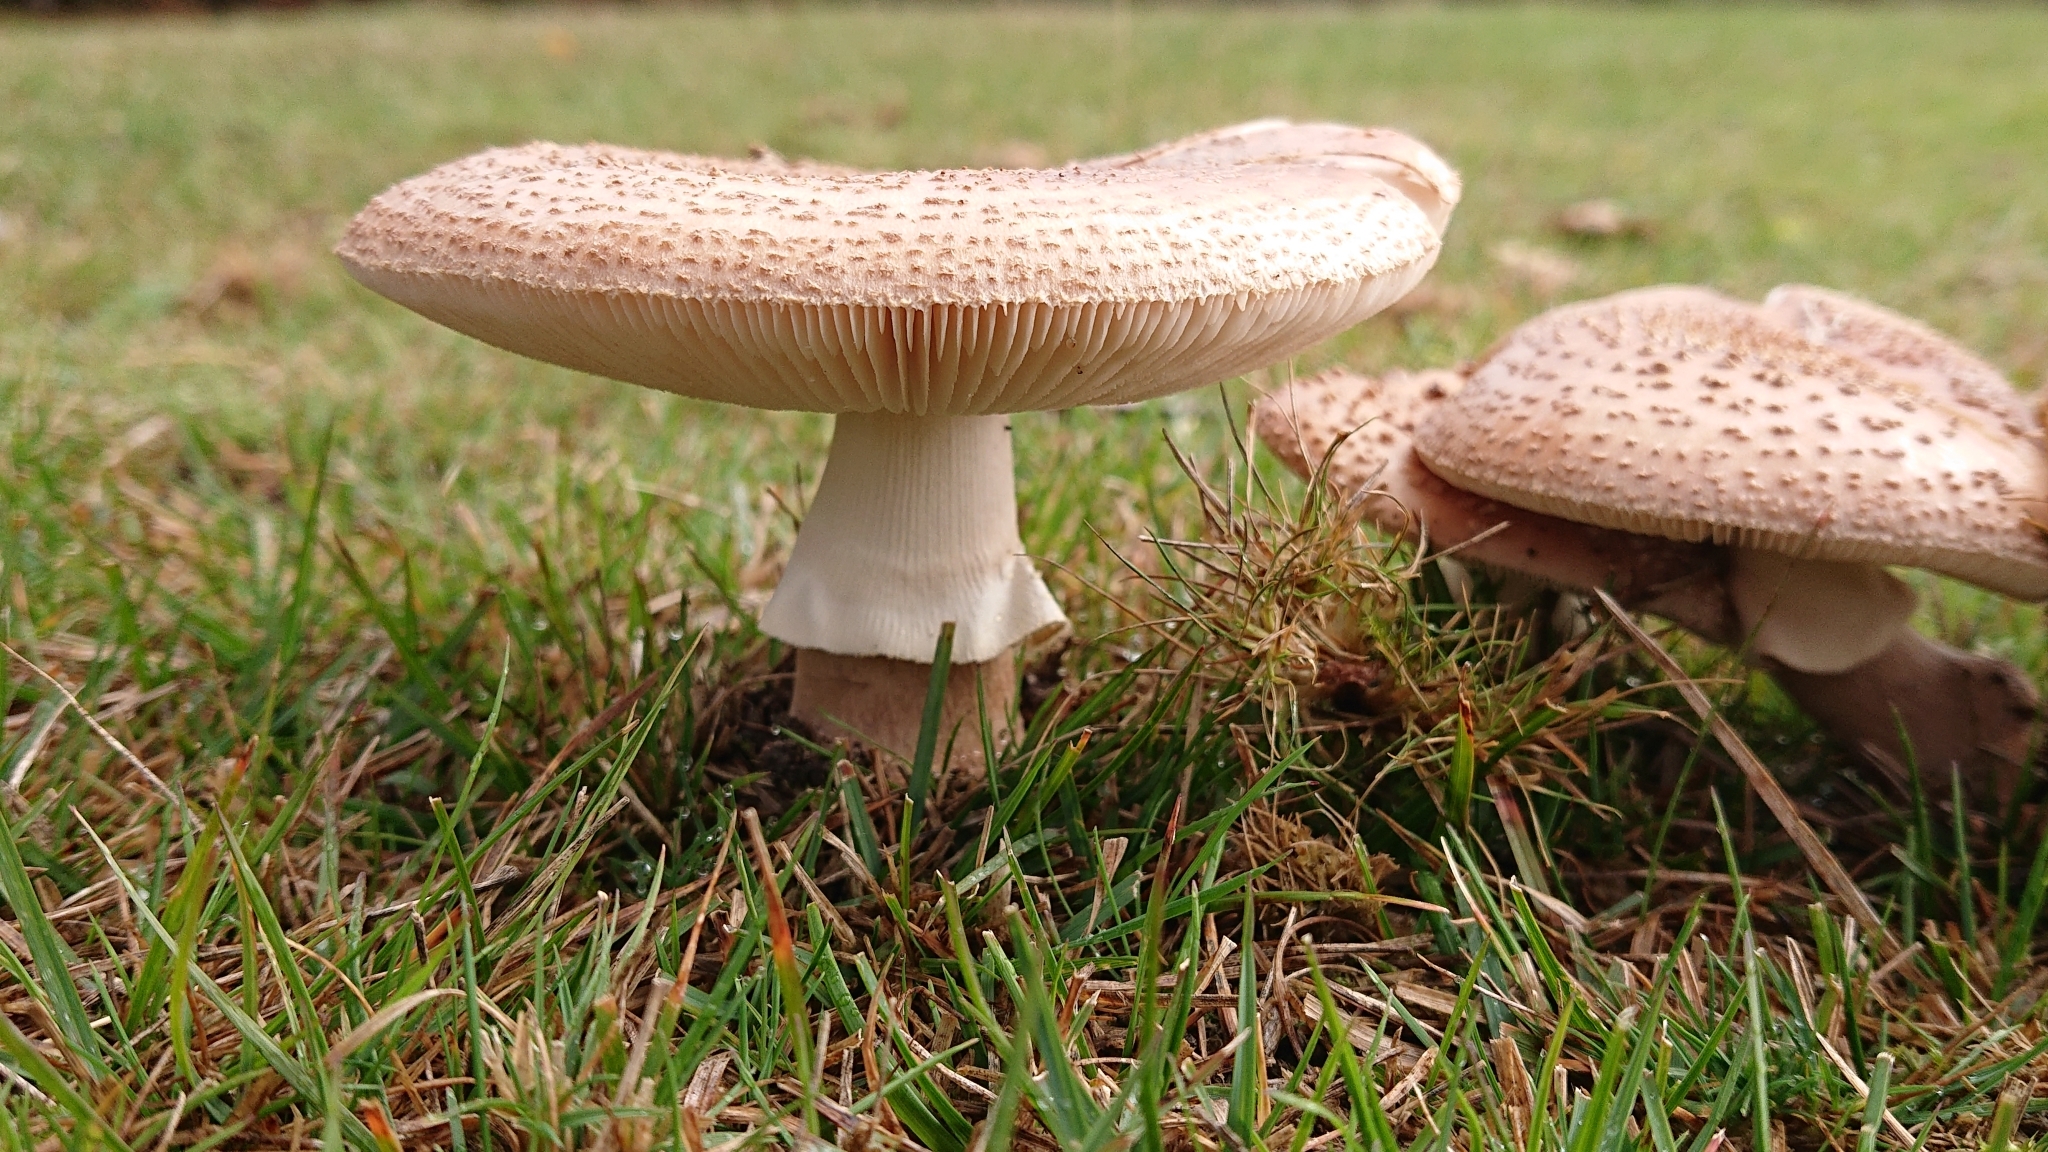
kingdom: Fungi
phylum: Basidiomycota
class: Agaricomycetes
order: Agaricales
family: Amanitaceae
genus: Amanita
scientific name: Amanita rubescens
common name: Blusher
